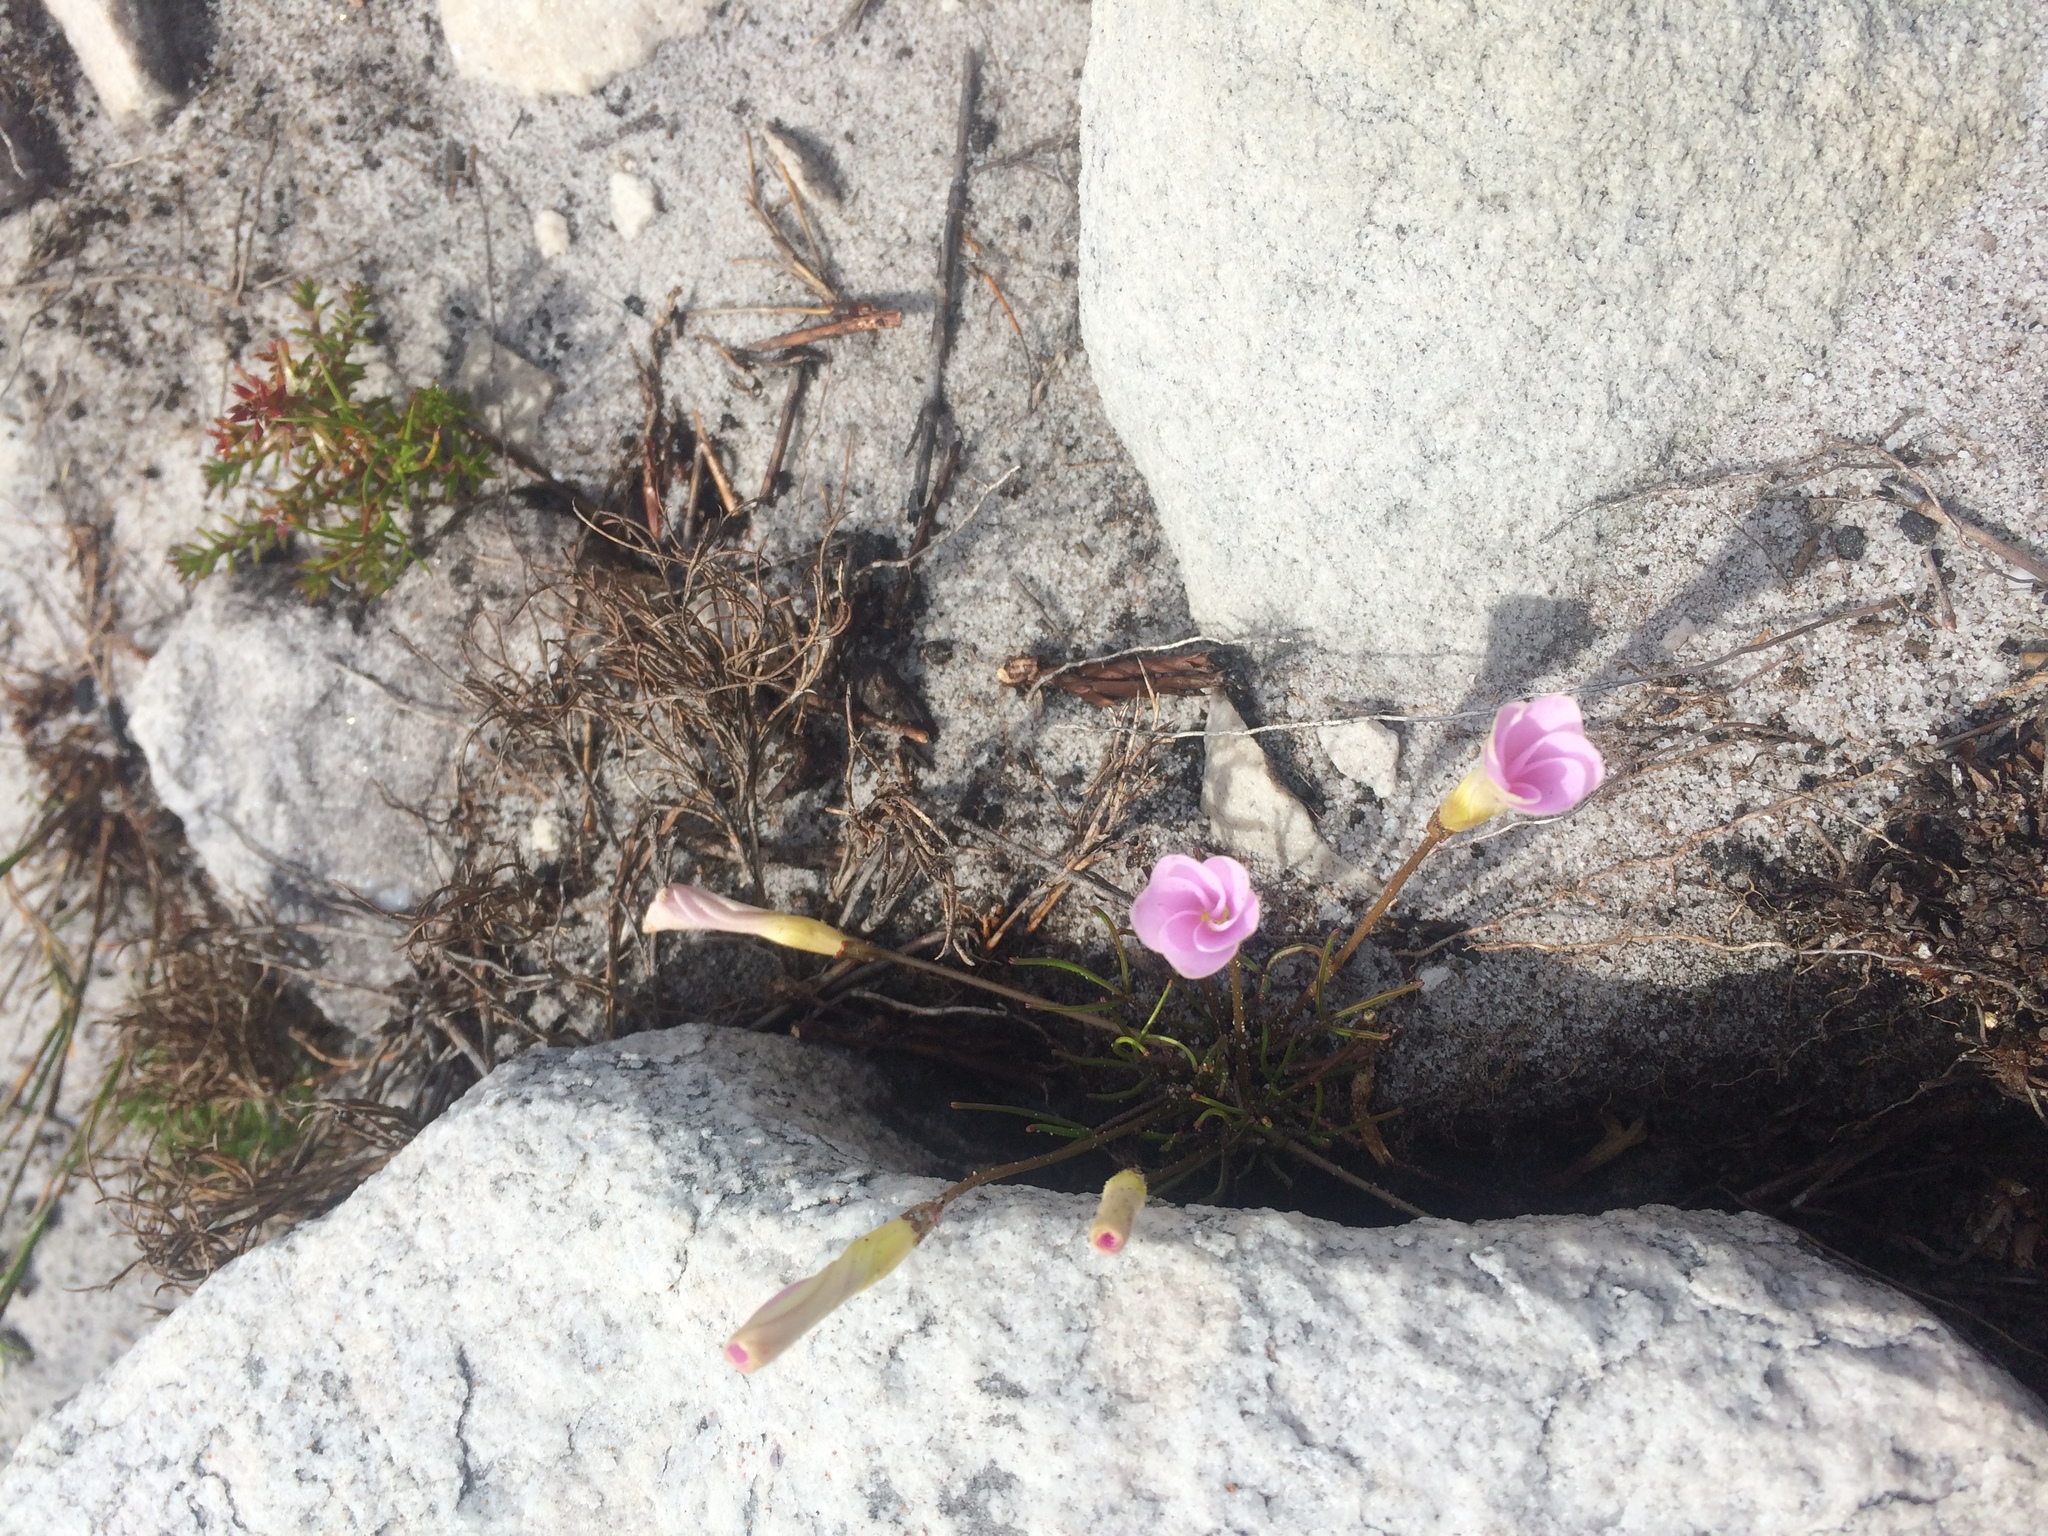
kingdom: Plantae
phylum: Tracheophyta
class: Magnoliopsida
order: Oxalidales
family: Oxalidaceae
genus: Oxalis
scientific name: Oxalis polyphylla
